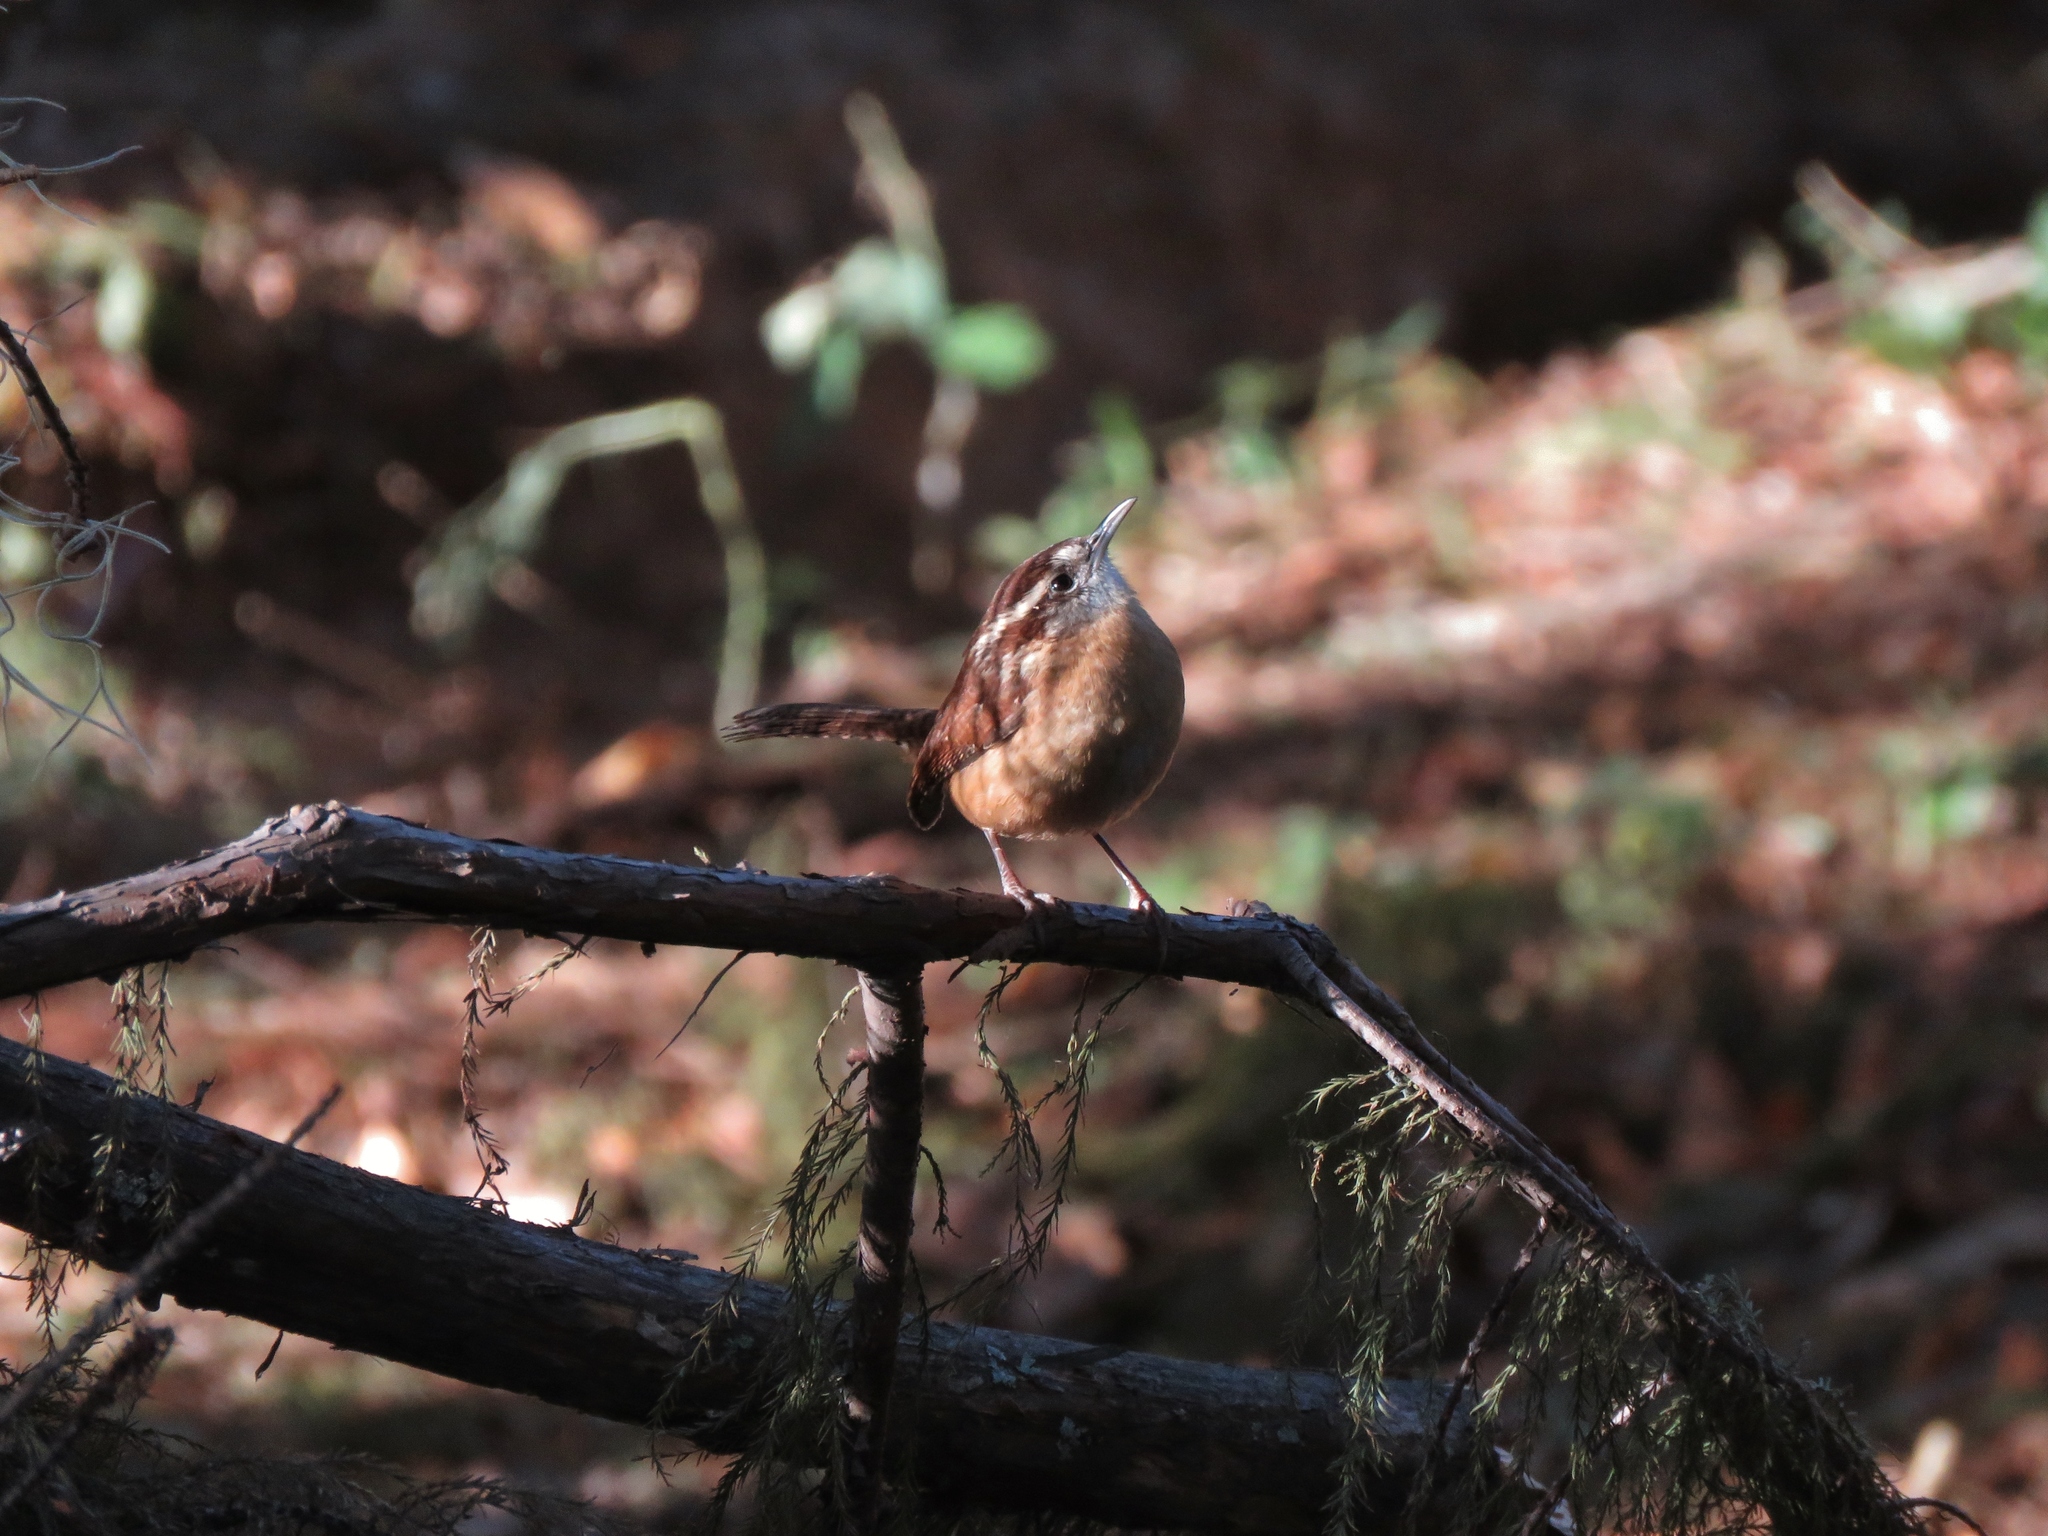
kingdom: Animalia
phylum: Chordata
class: Aves
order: Passeriformes
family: Troglodytidae
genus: Thryothorus
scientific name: Thryothorus ludovicianus
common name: Carolina wren
